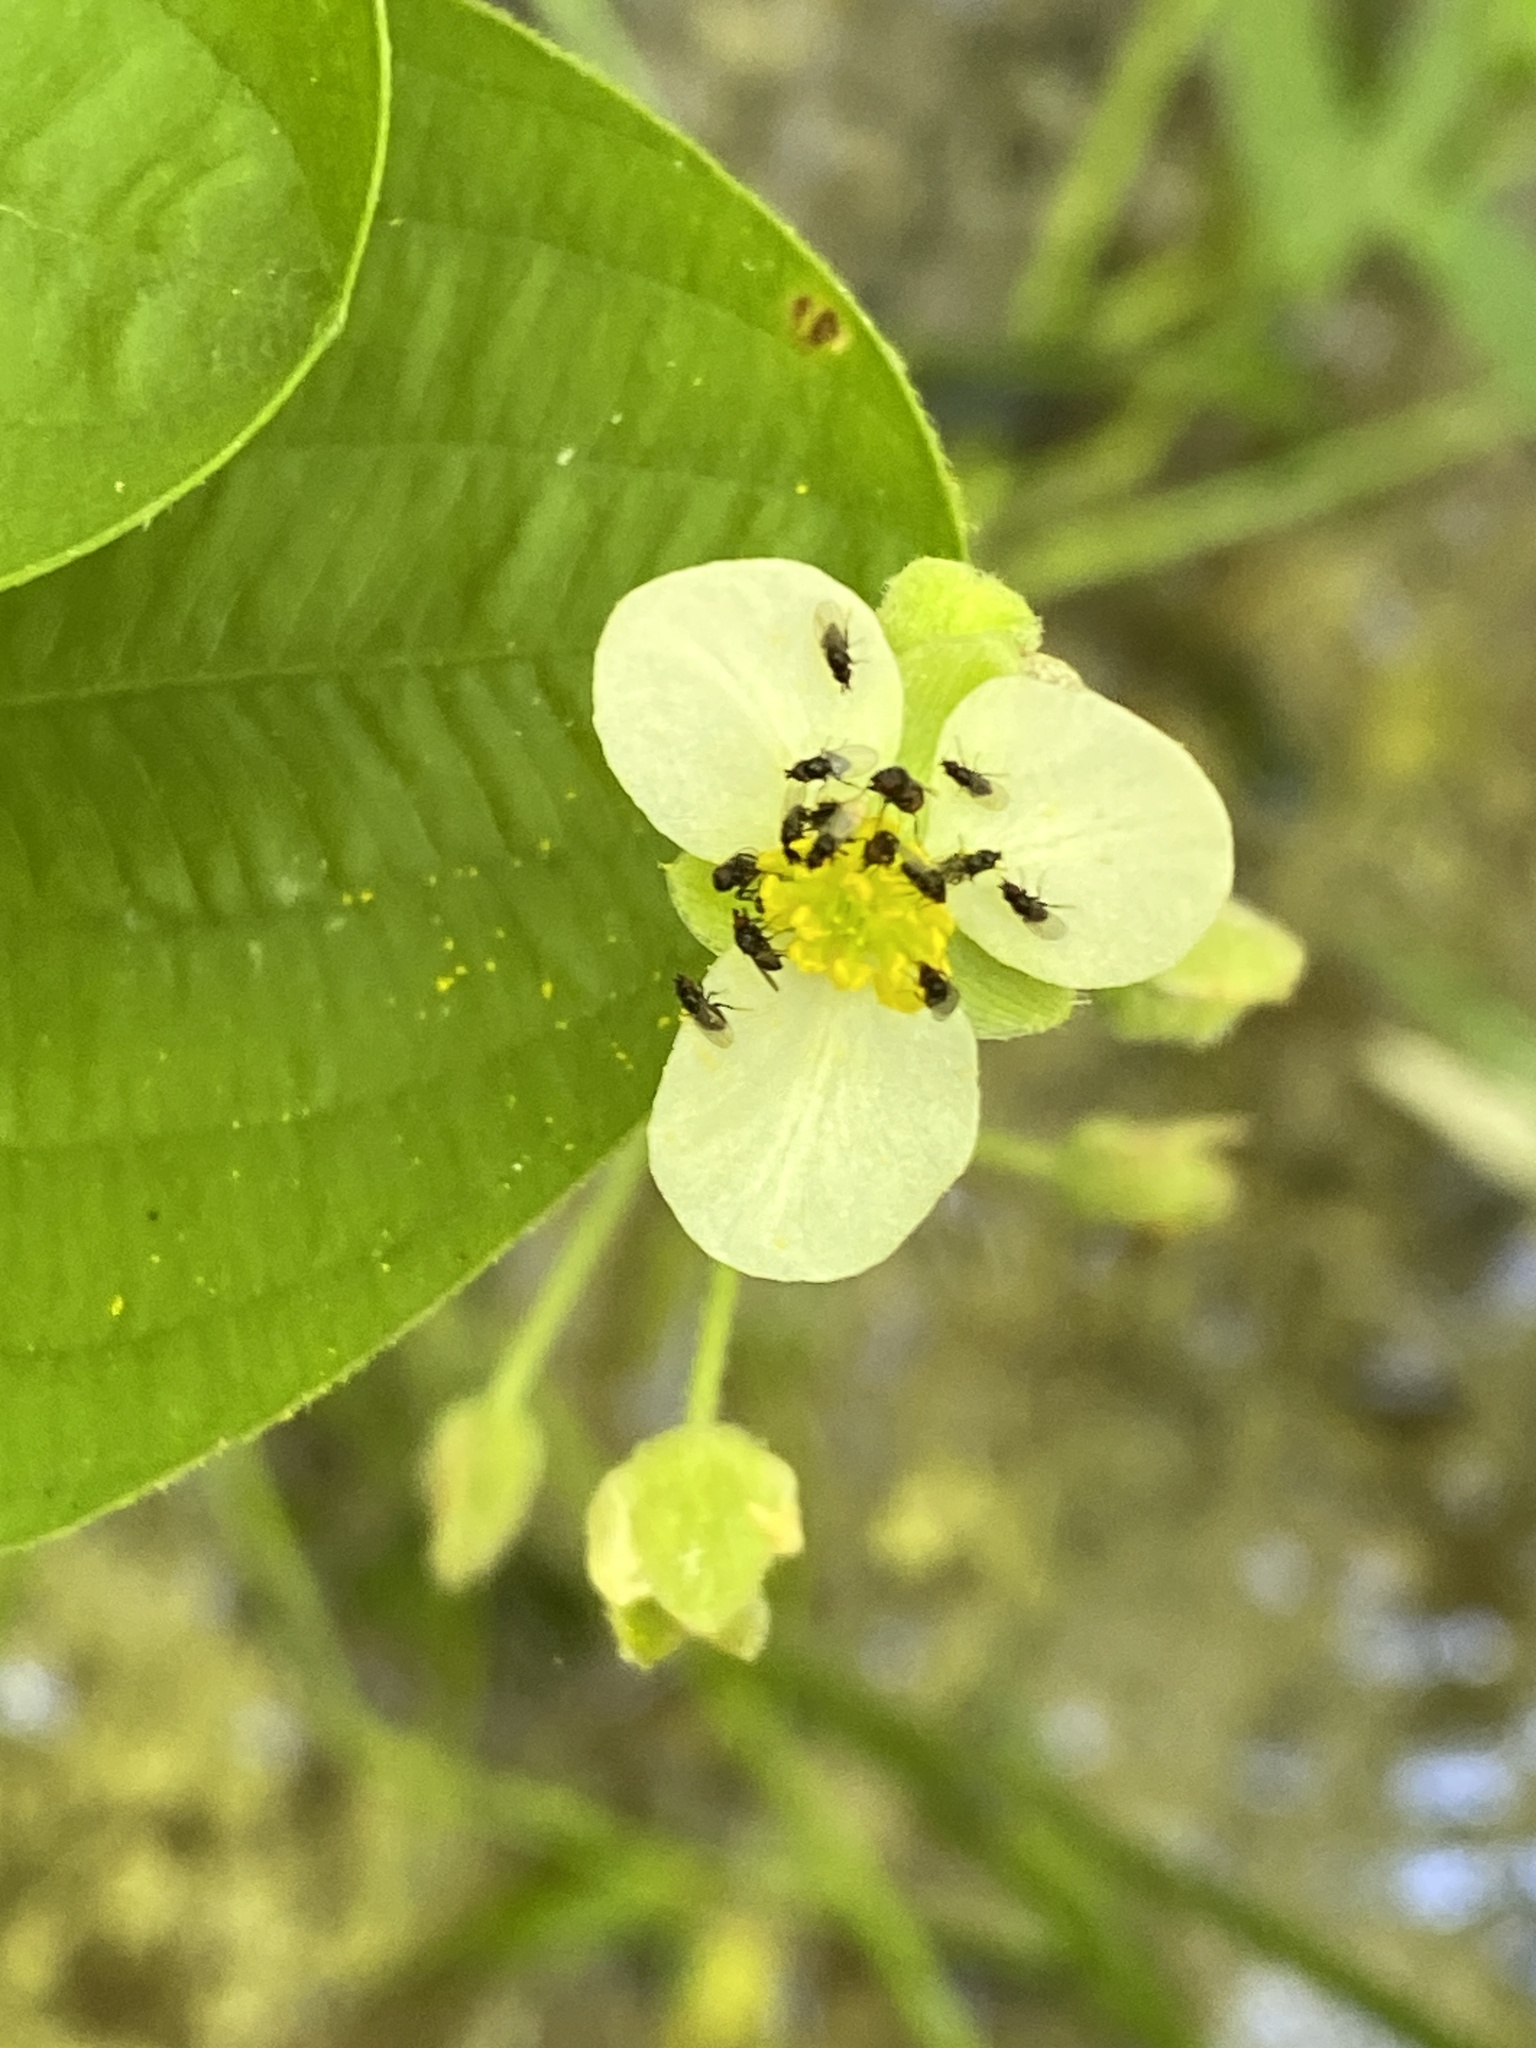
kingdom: Plantae
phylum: Tracheophyta
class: Liliopsida
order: Alismatales
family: Alismataceae
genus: Sagittaria
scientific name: Sagittaria latifolia
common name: Duck-potato
